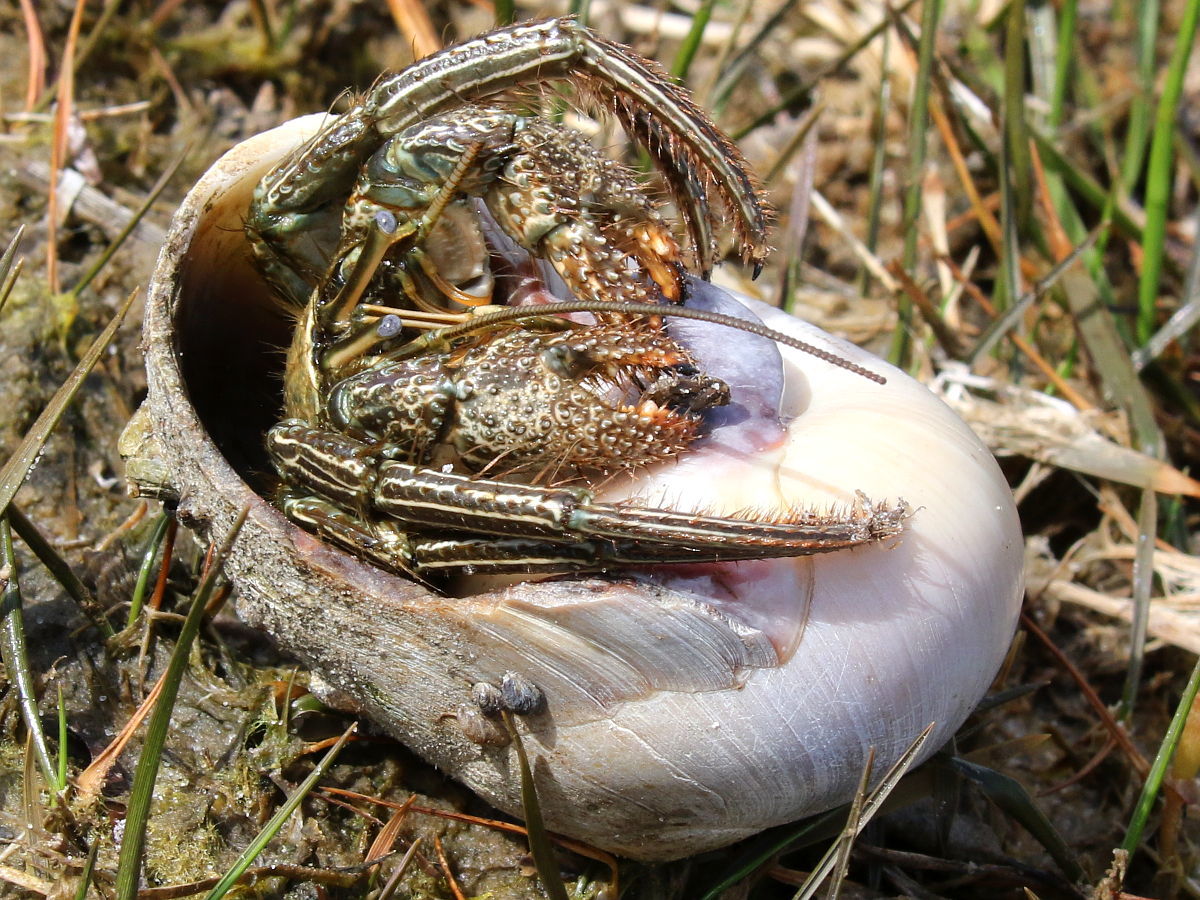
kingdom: Animalia
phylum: Arthropoda
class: Malacostraca
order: Decapoda
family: Diogenidae
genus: Clibanarius
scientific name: Clibanarius vittatus
